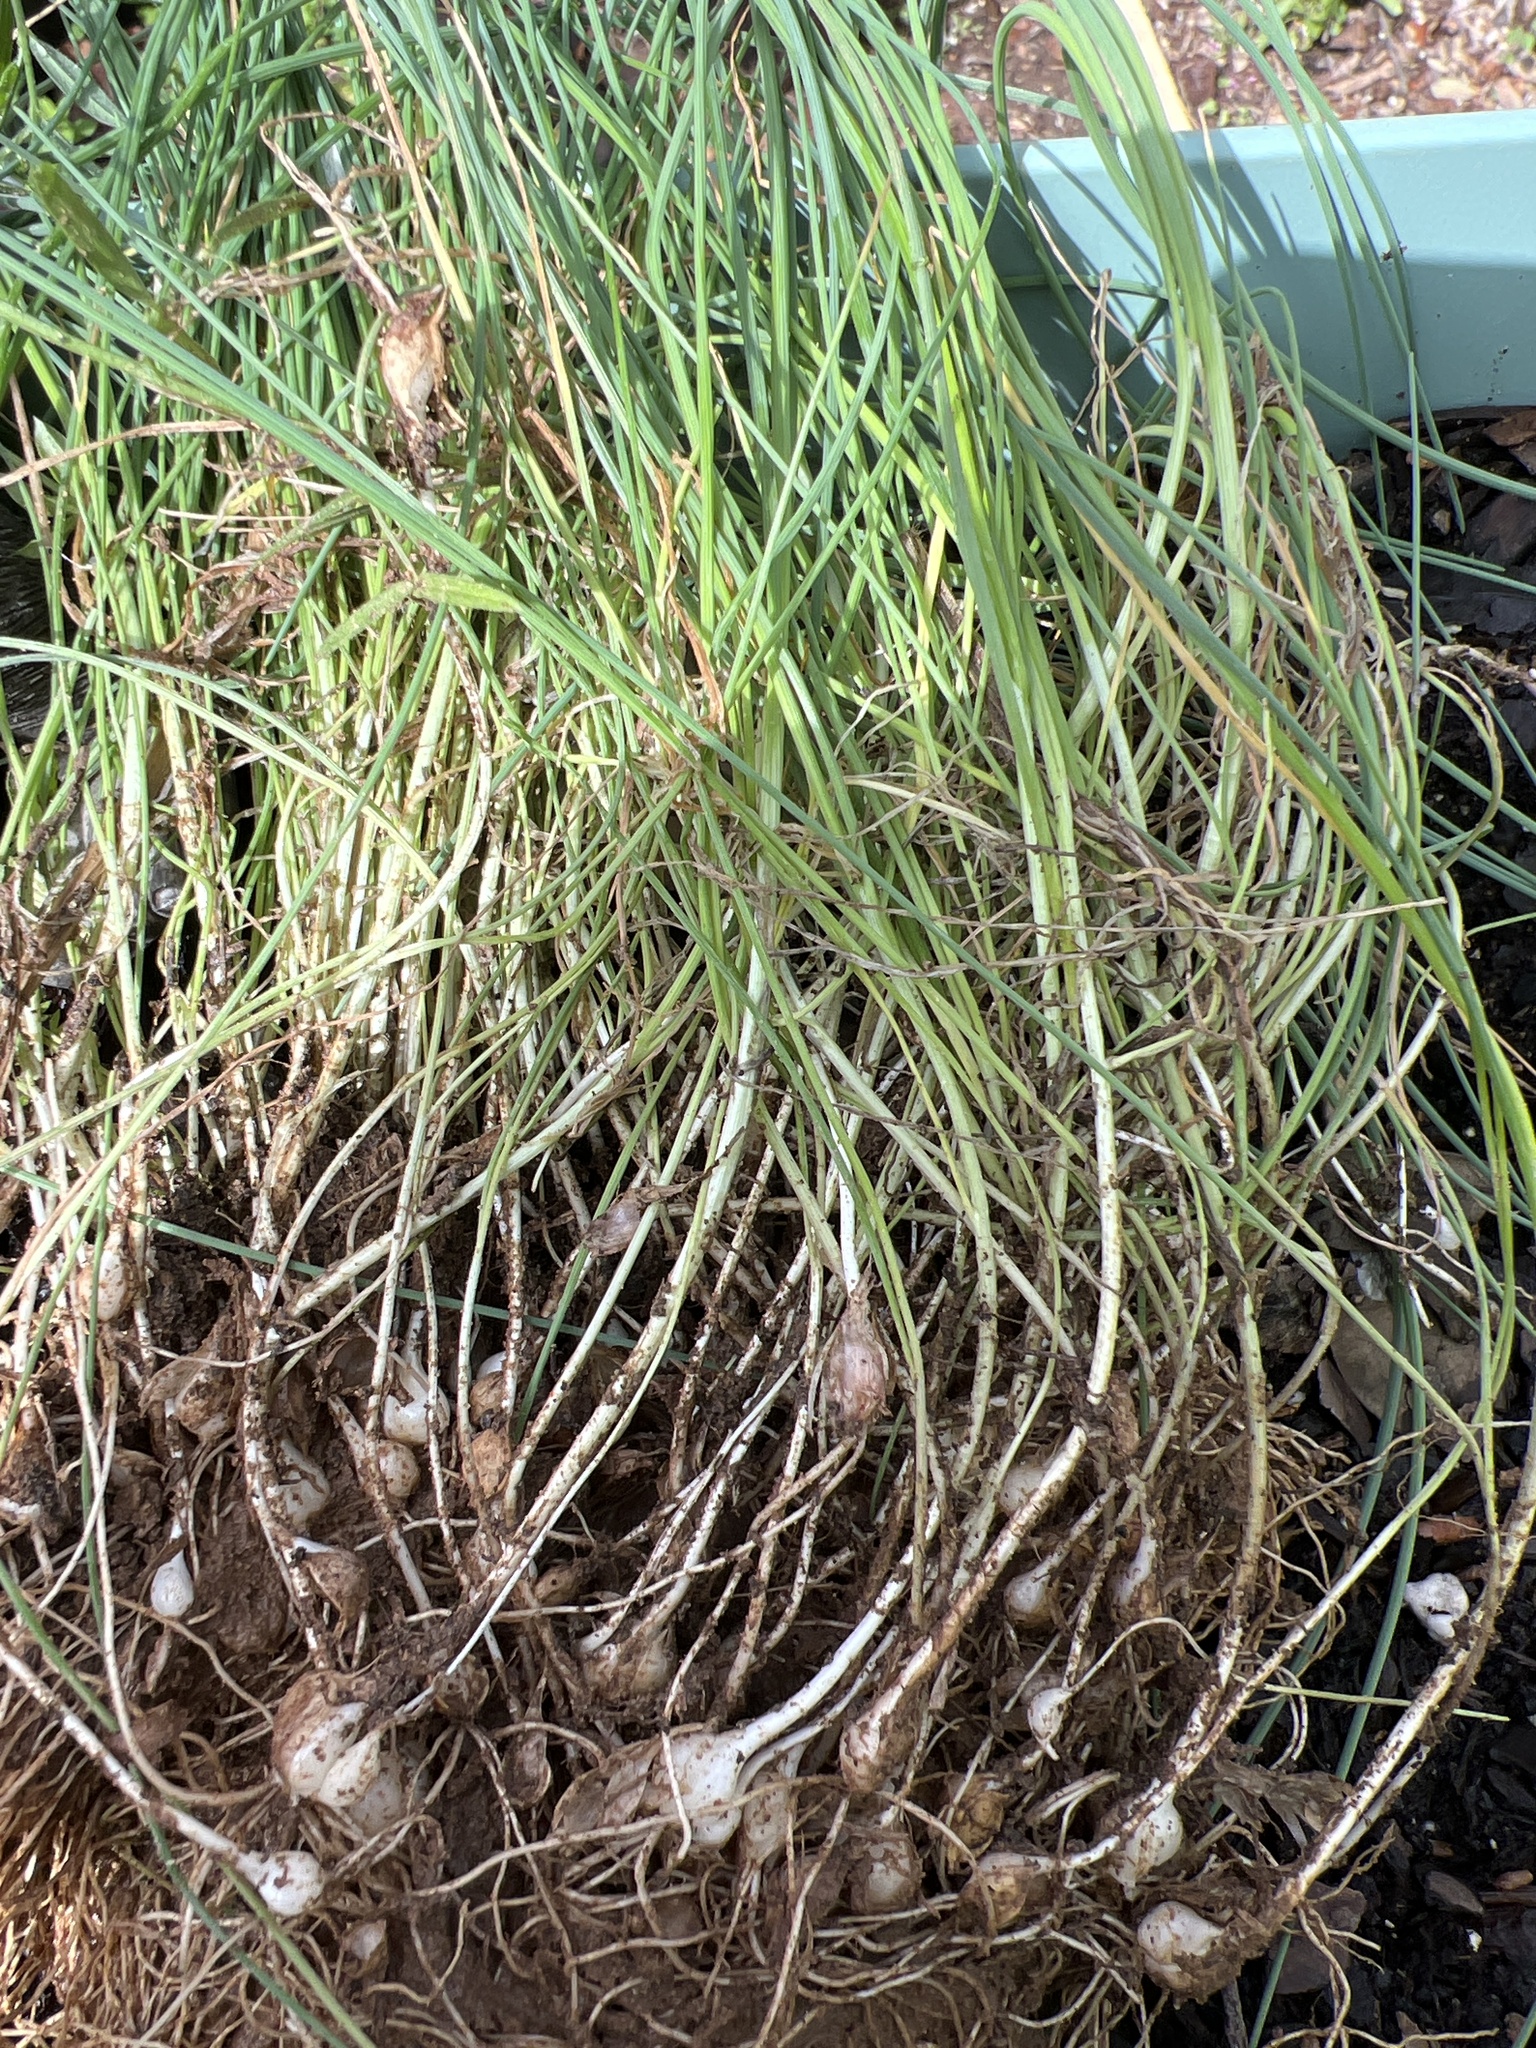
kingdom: Plantae
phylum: Tracheophyta
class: Liliopsida
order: Asparagales
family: Amaryllidaceae
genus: Allium
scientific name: Allium vineale
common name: Crow garlic
